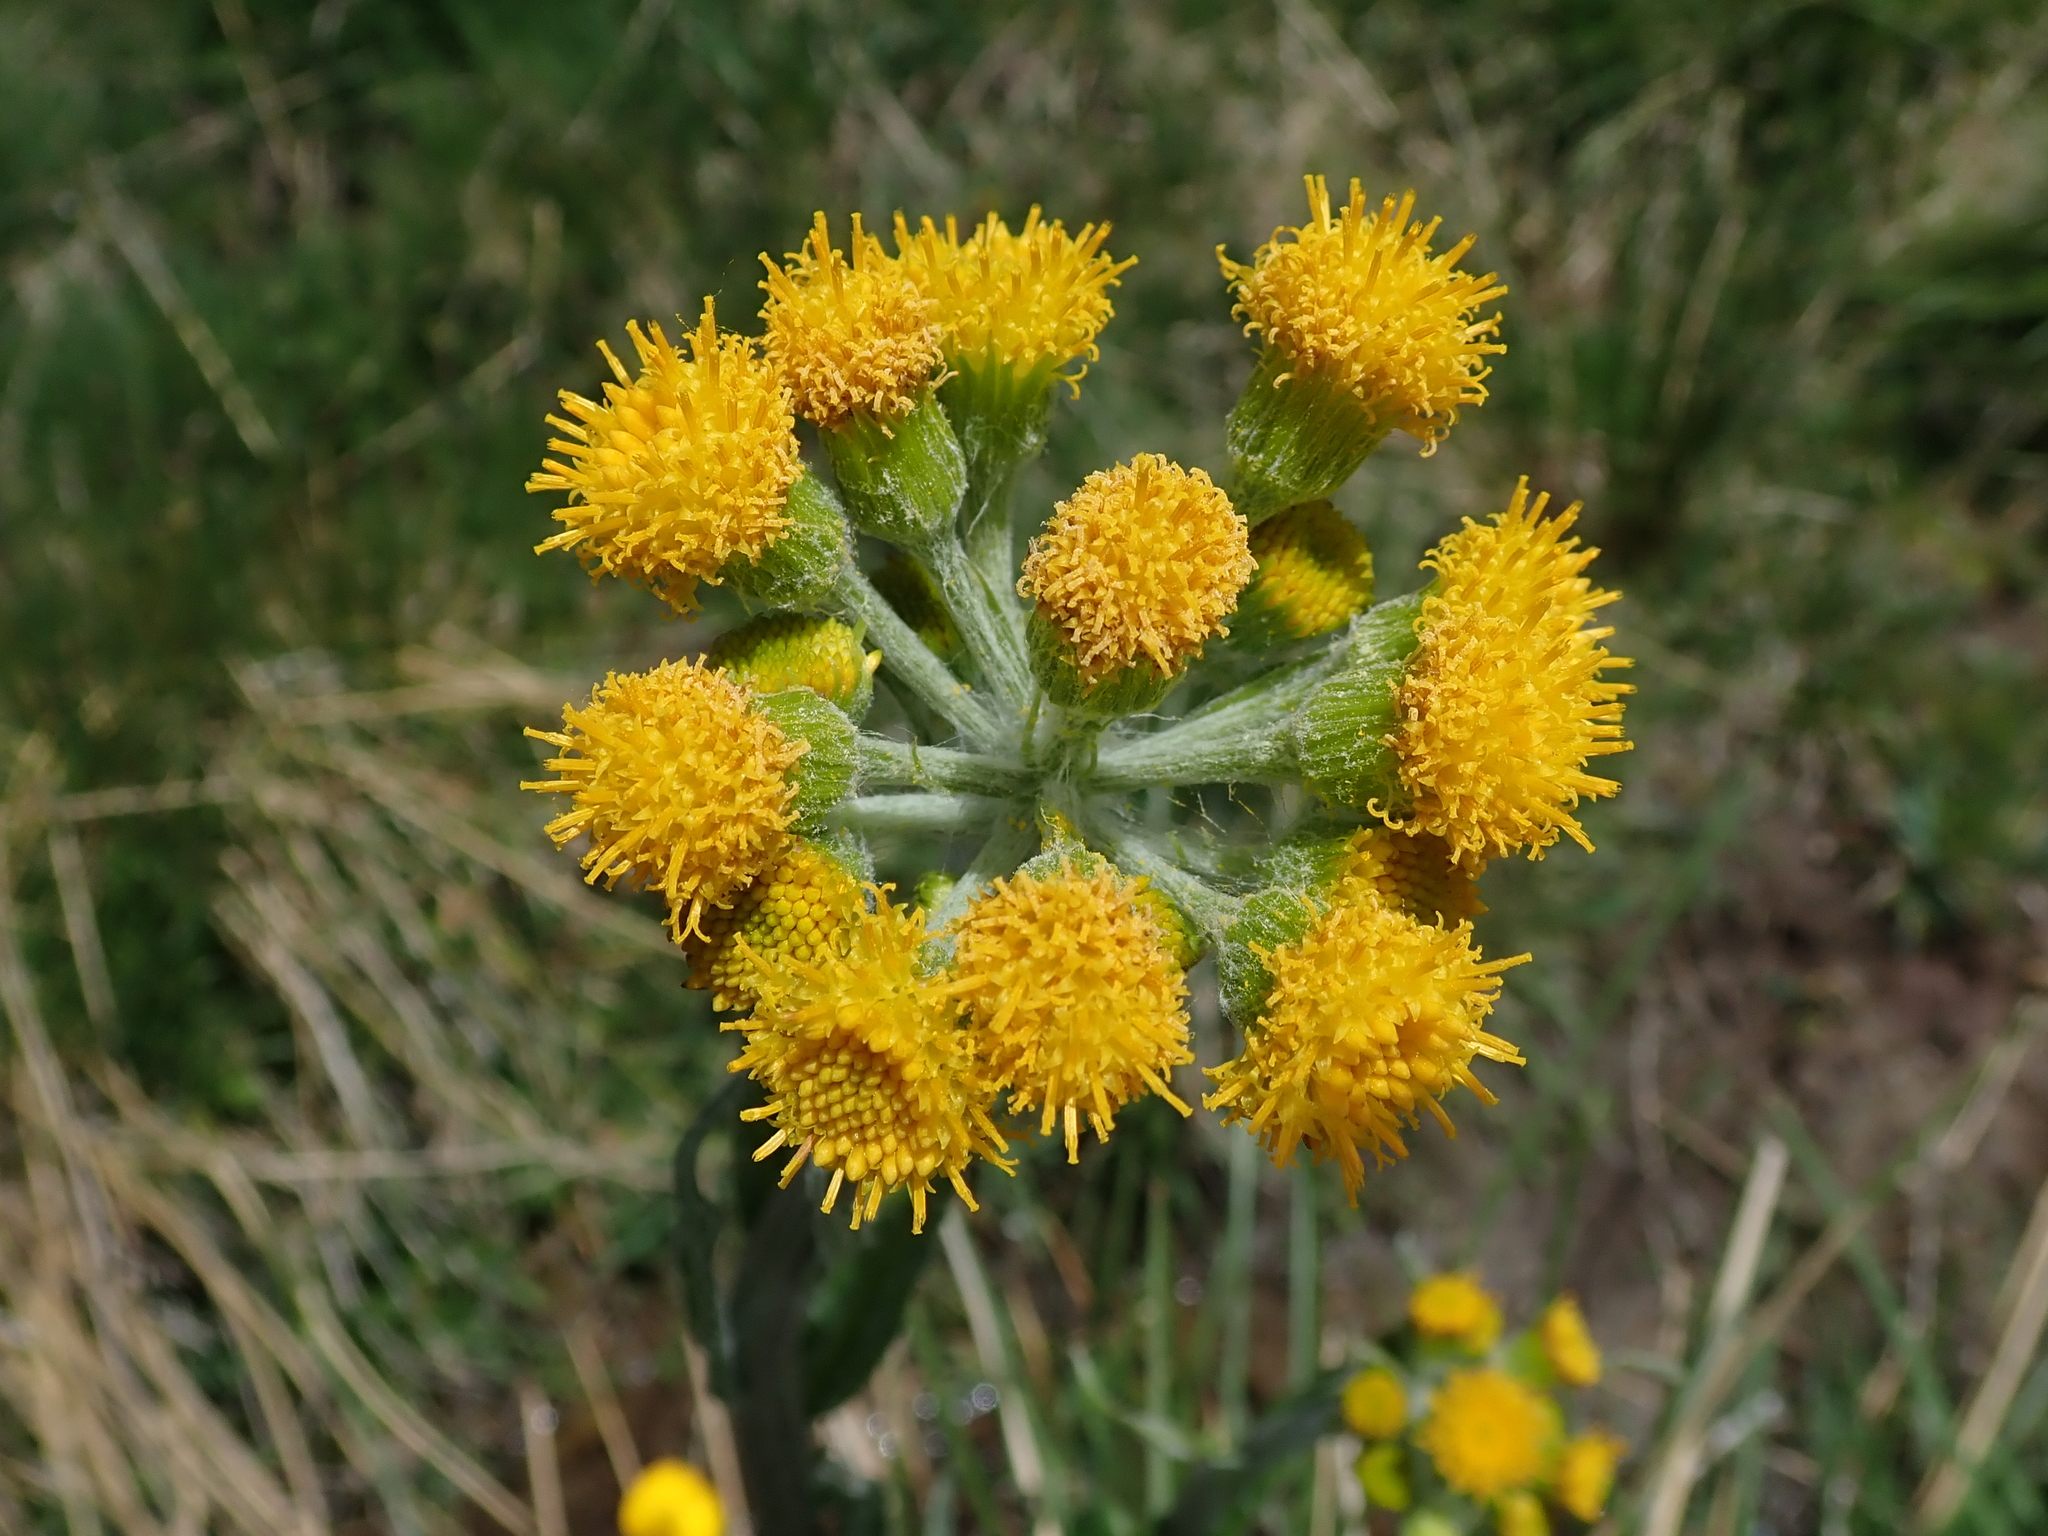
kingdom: Plantae
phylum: Tracheophyta
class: Magnoliopsida
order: Asterales
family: Asteraceae
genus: Tephroseris
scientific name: Tephroseris helenitis
